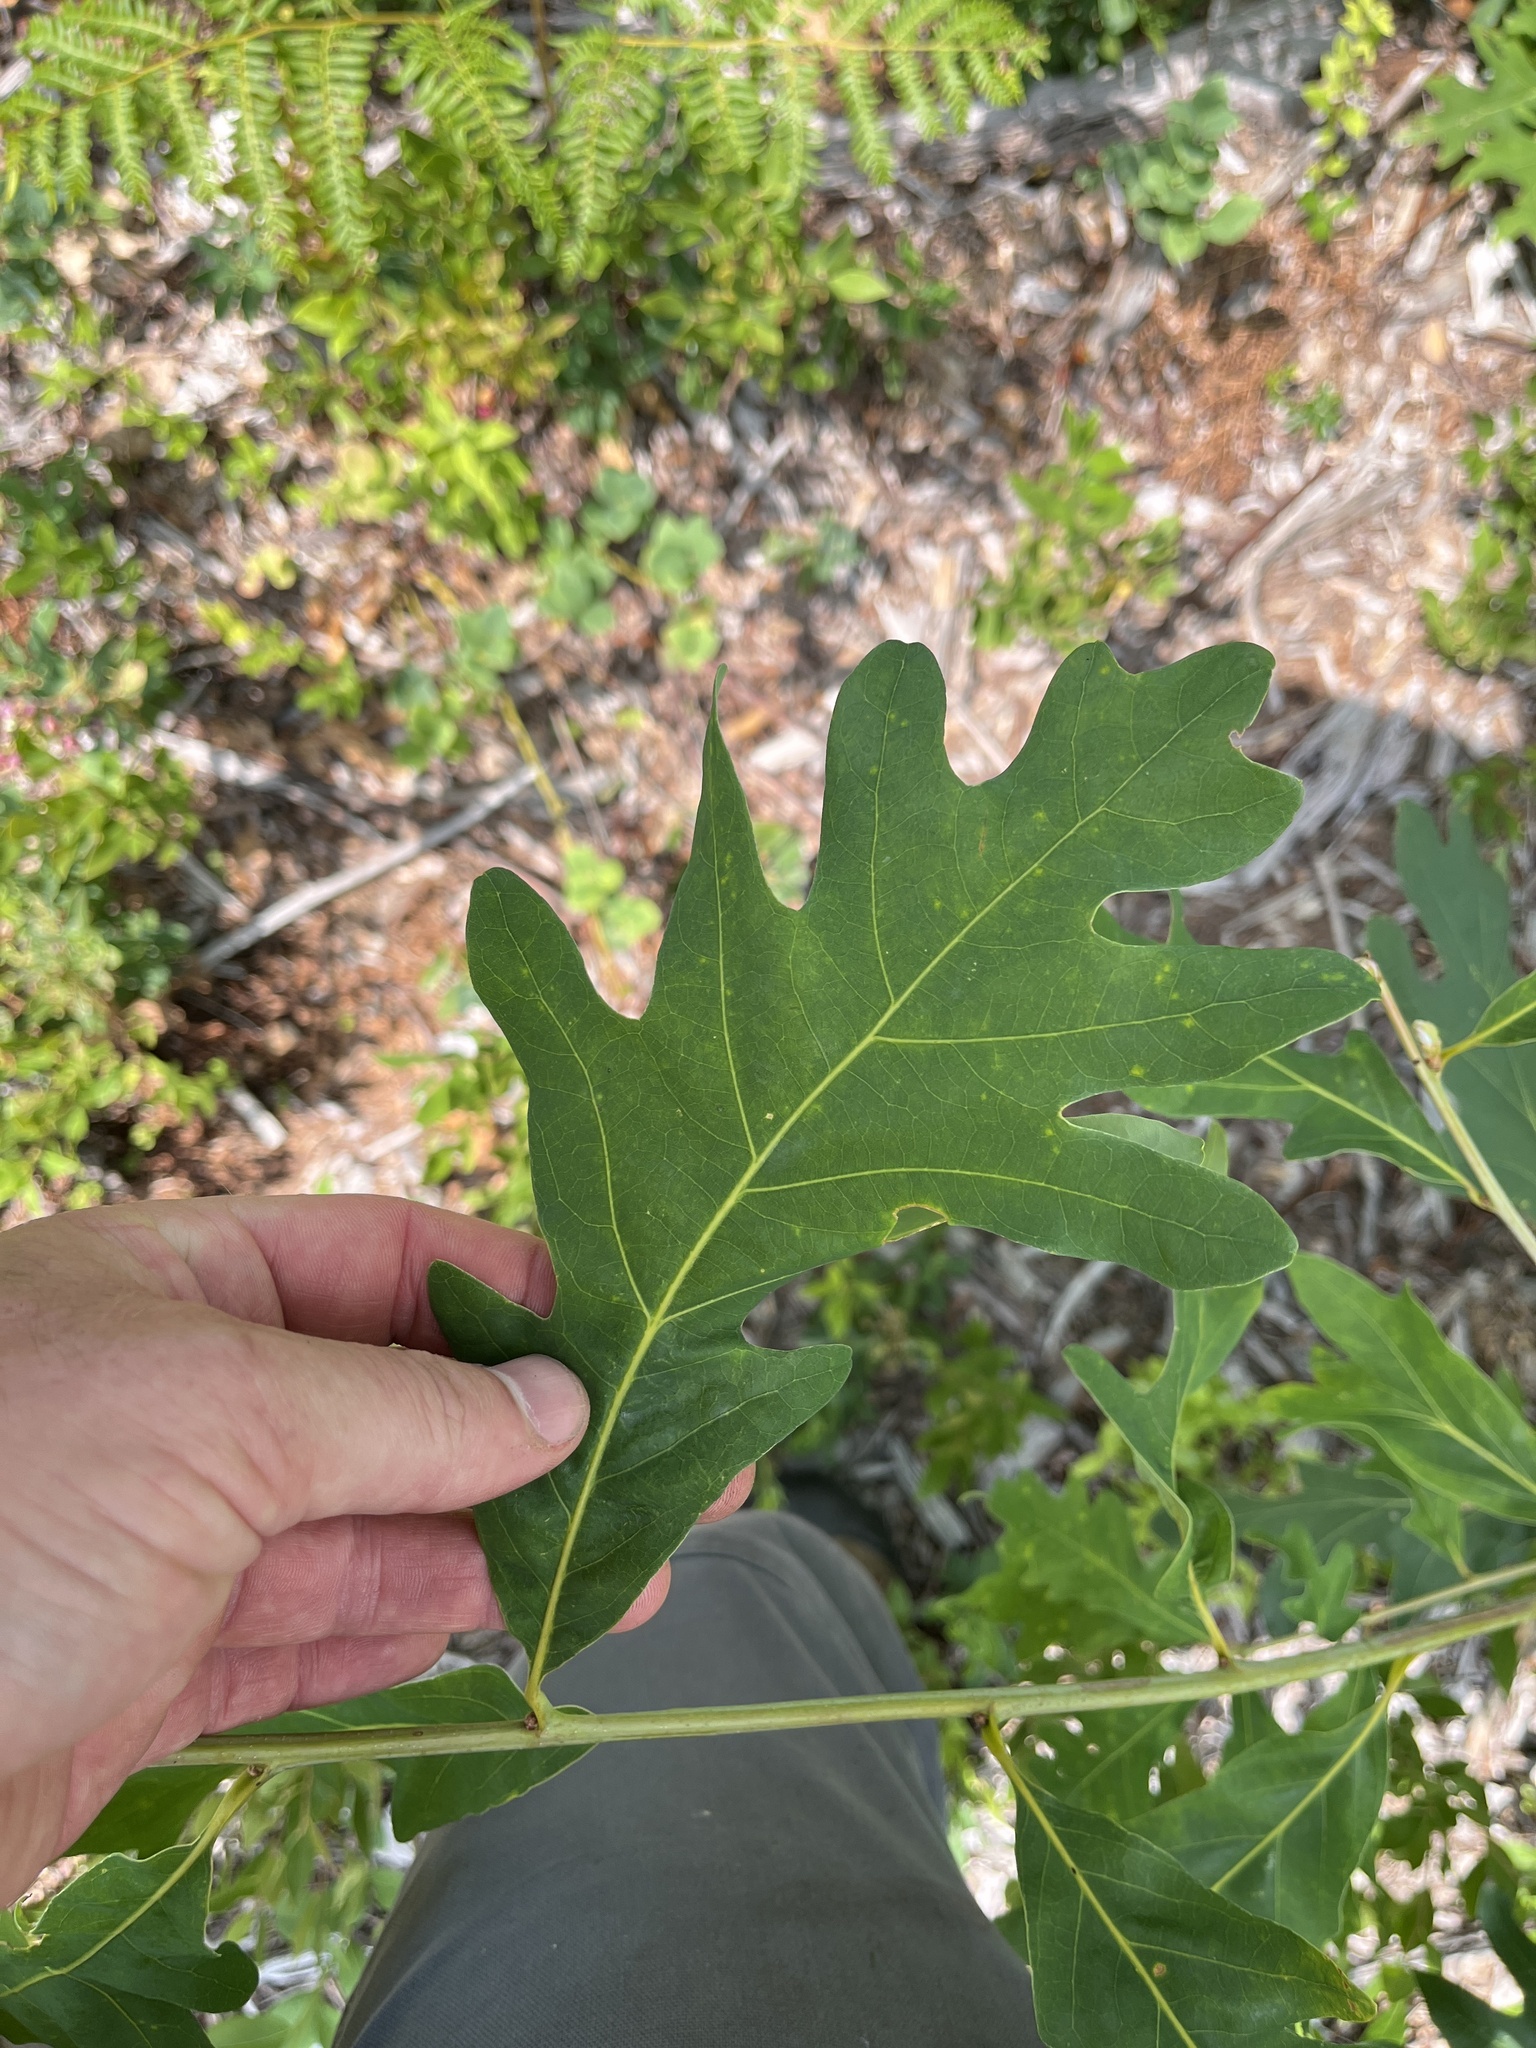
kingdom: Plantae
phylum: Tracheophyta
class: Magnoliopsida
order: Fagales
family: Fagaceae
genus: Quercus
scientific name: Quercus alba
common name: White oak
